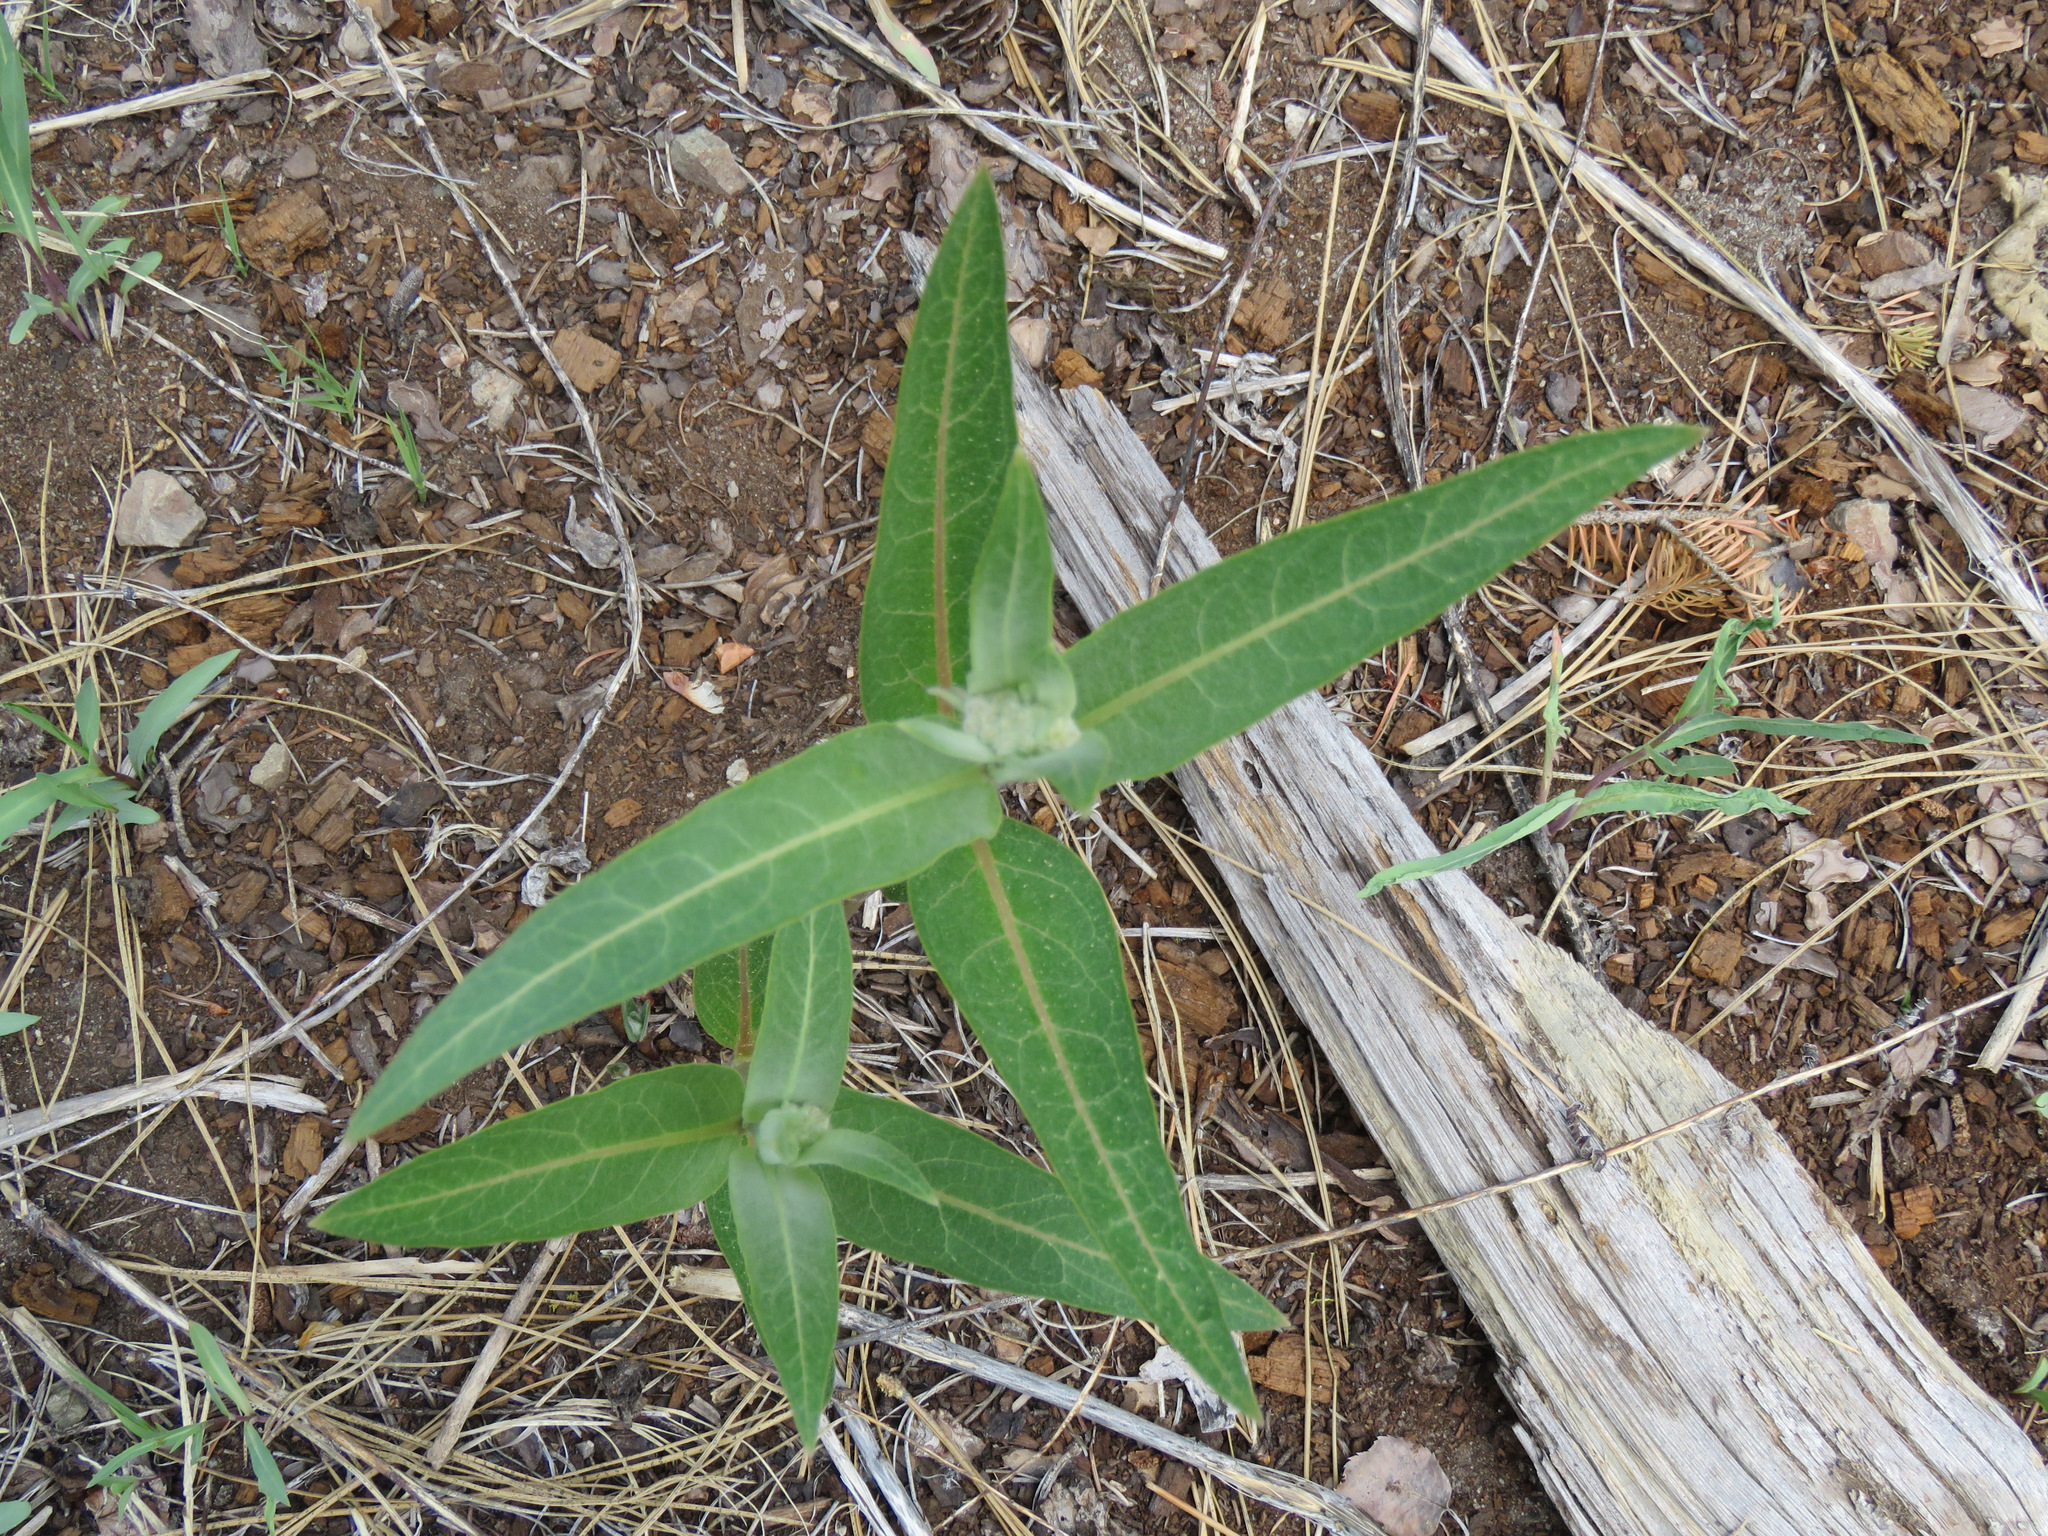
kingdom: Plantae
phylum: Tracheophyta
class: Magnoliopsida
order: Gentianales
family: Apocynaceae
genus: Asclepias
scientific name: Asclepias speciosa
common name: Showy milkweed
